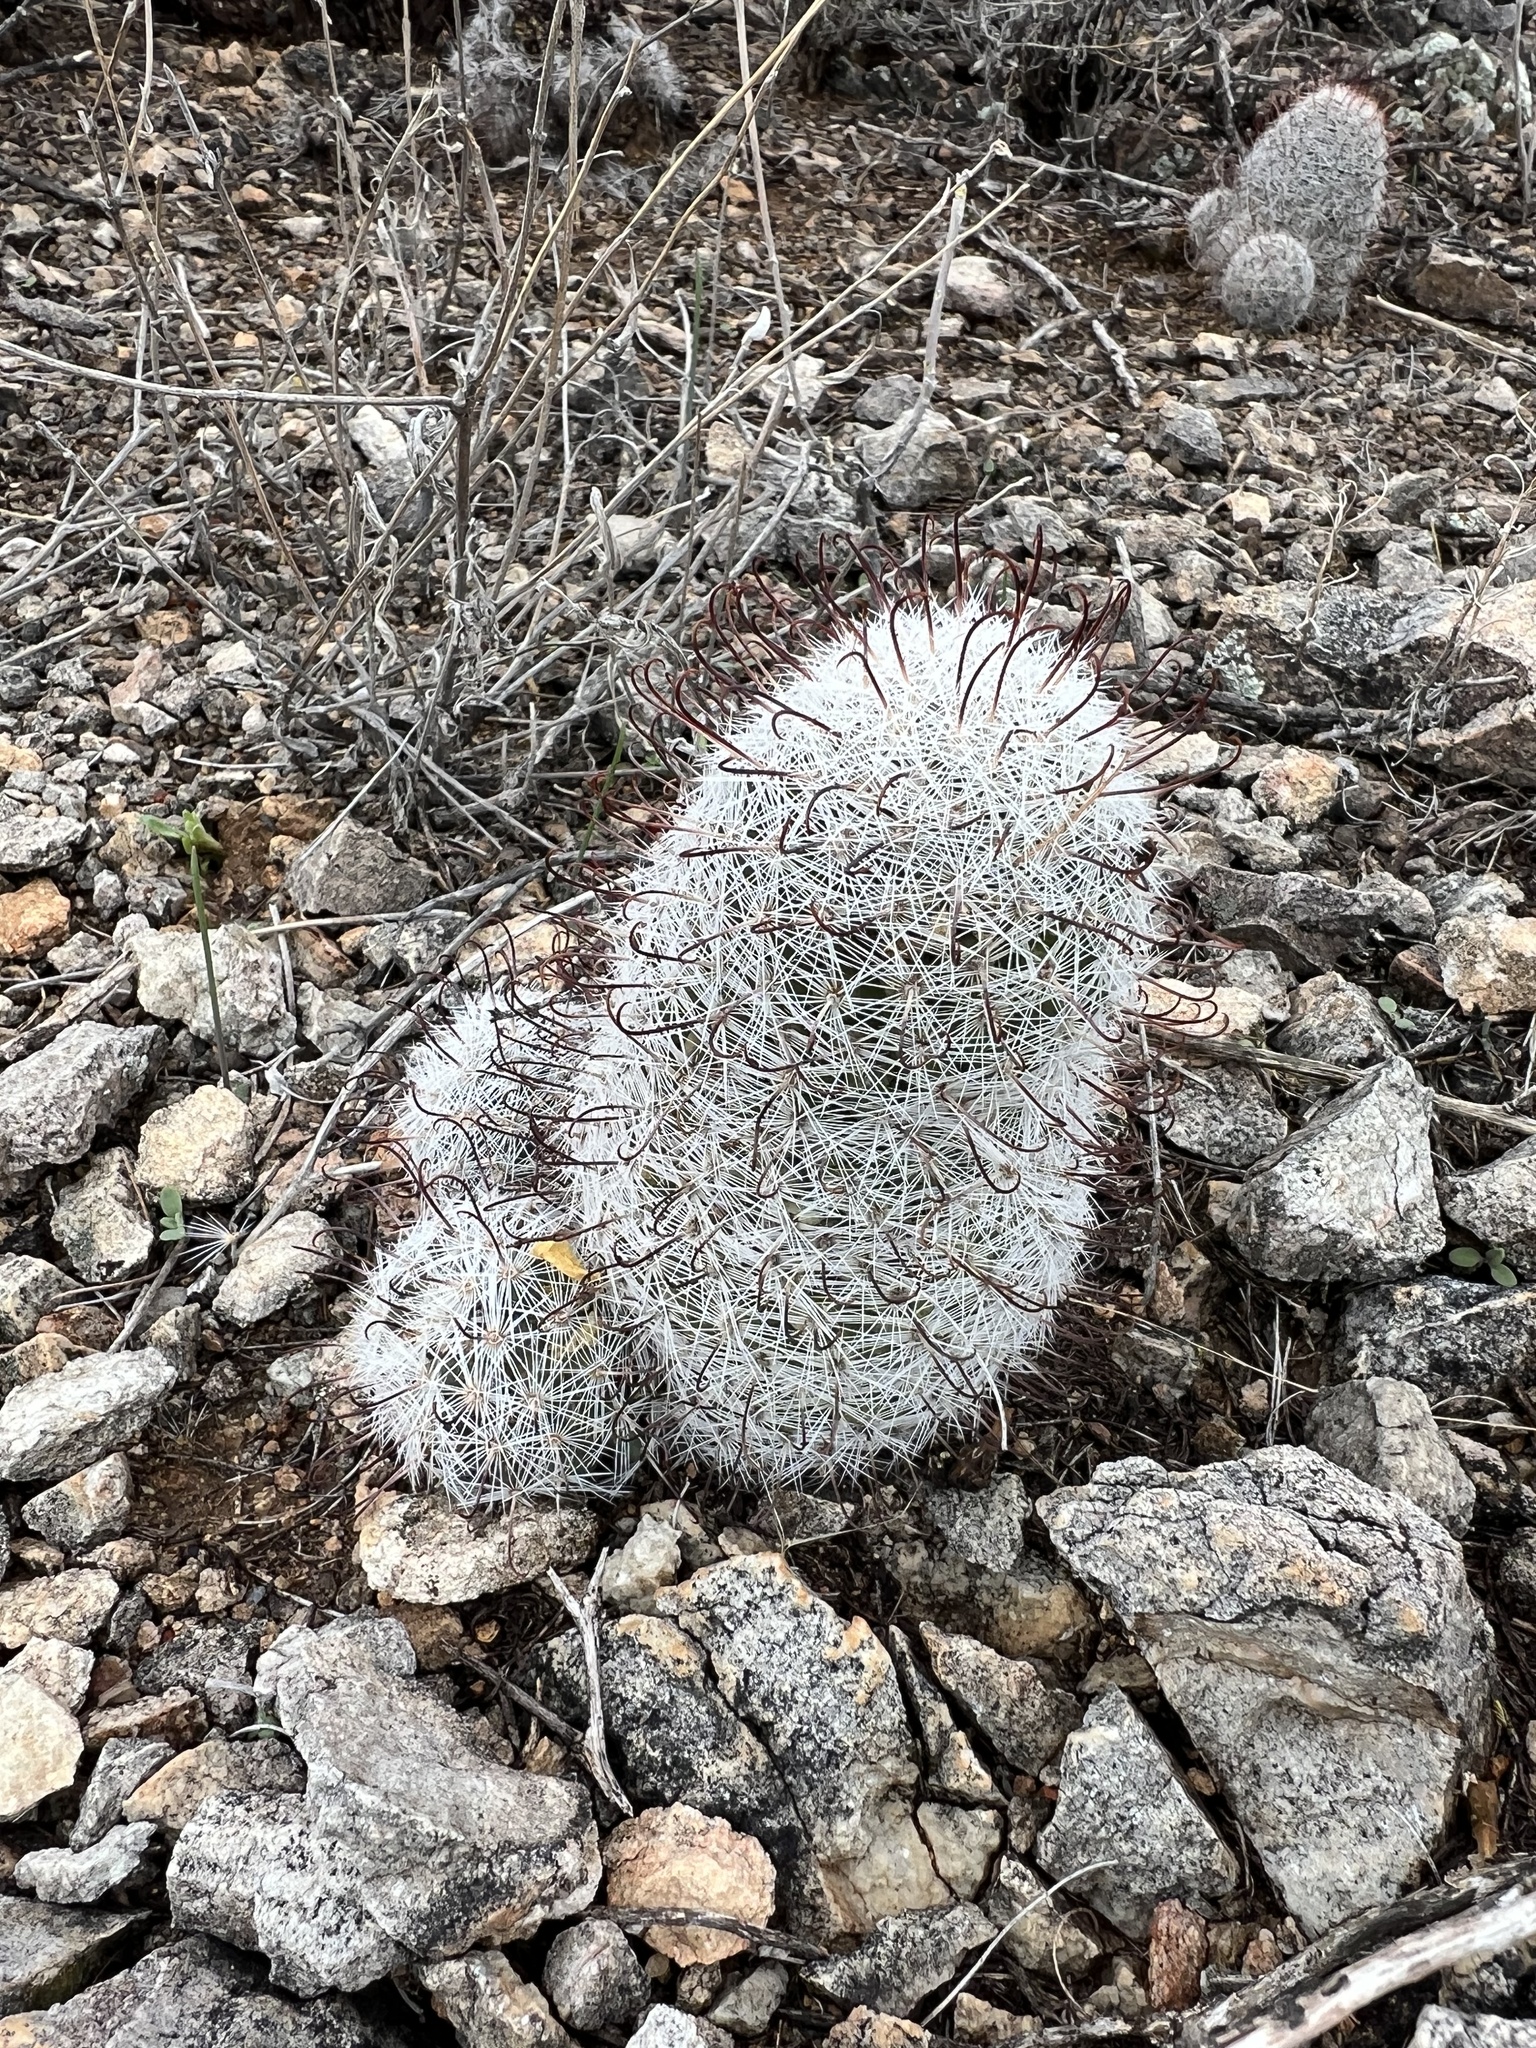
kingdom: Plantae
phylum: Tracheophyta
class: Magnoliopsida
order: Caryophyllales
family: Cactaceae
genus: Cochemiea
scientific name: Cochemiea grahamii
